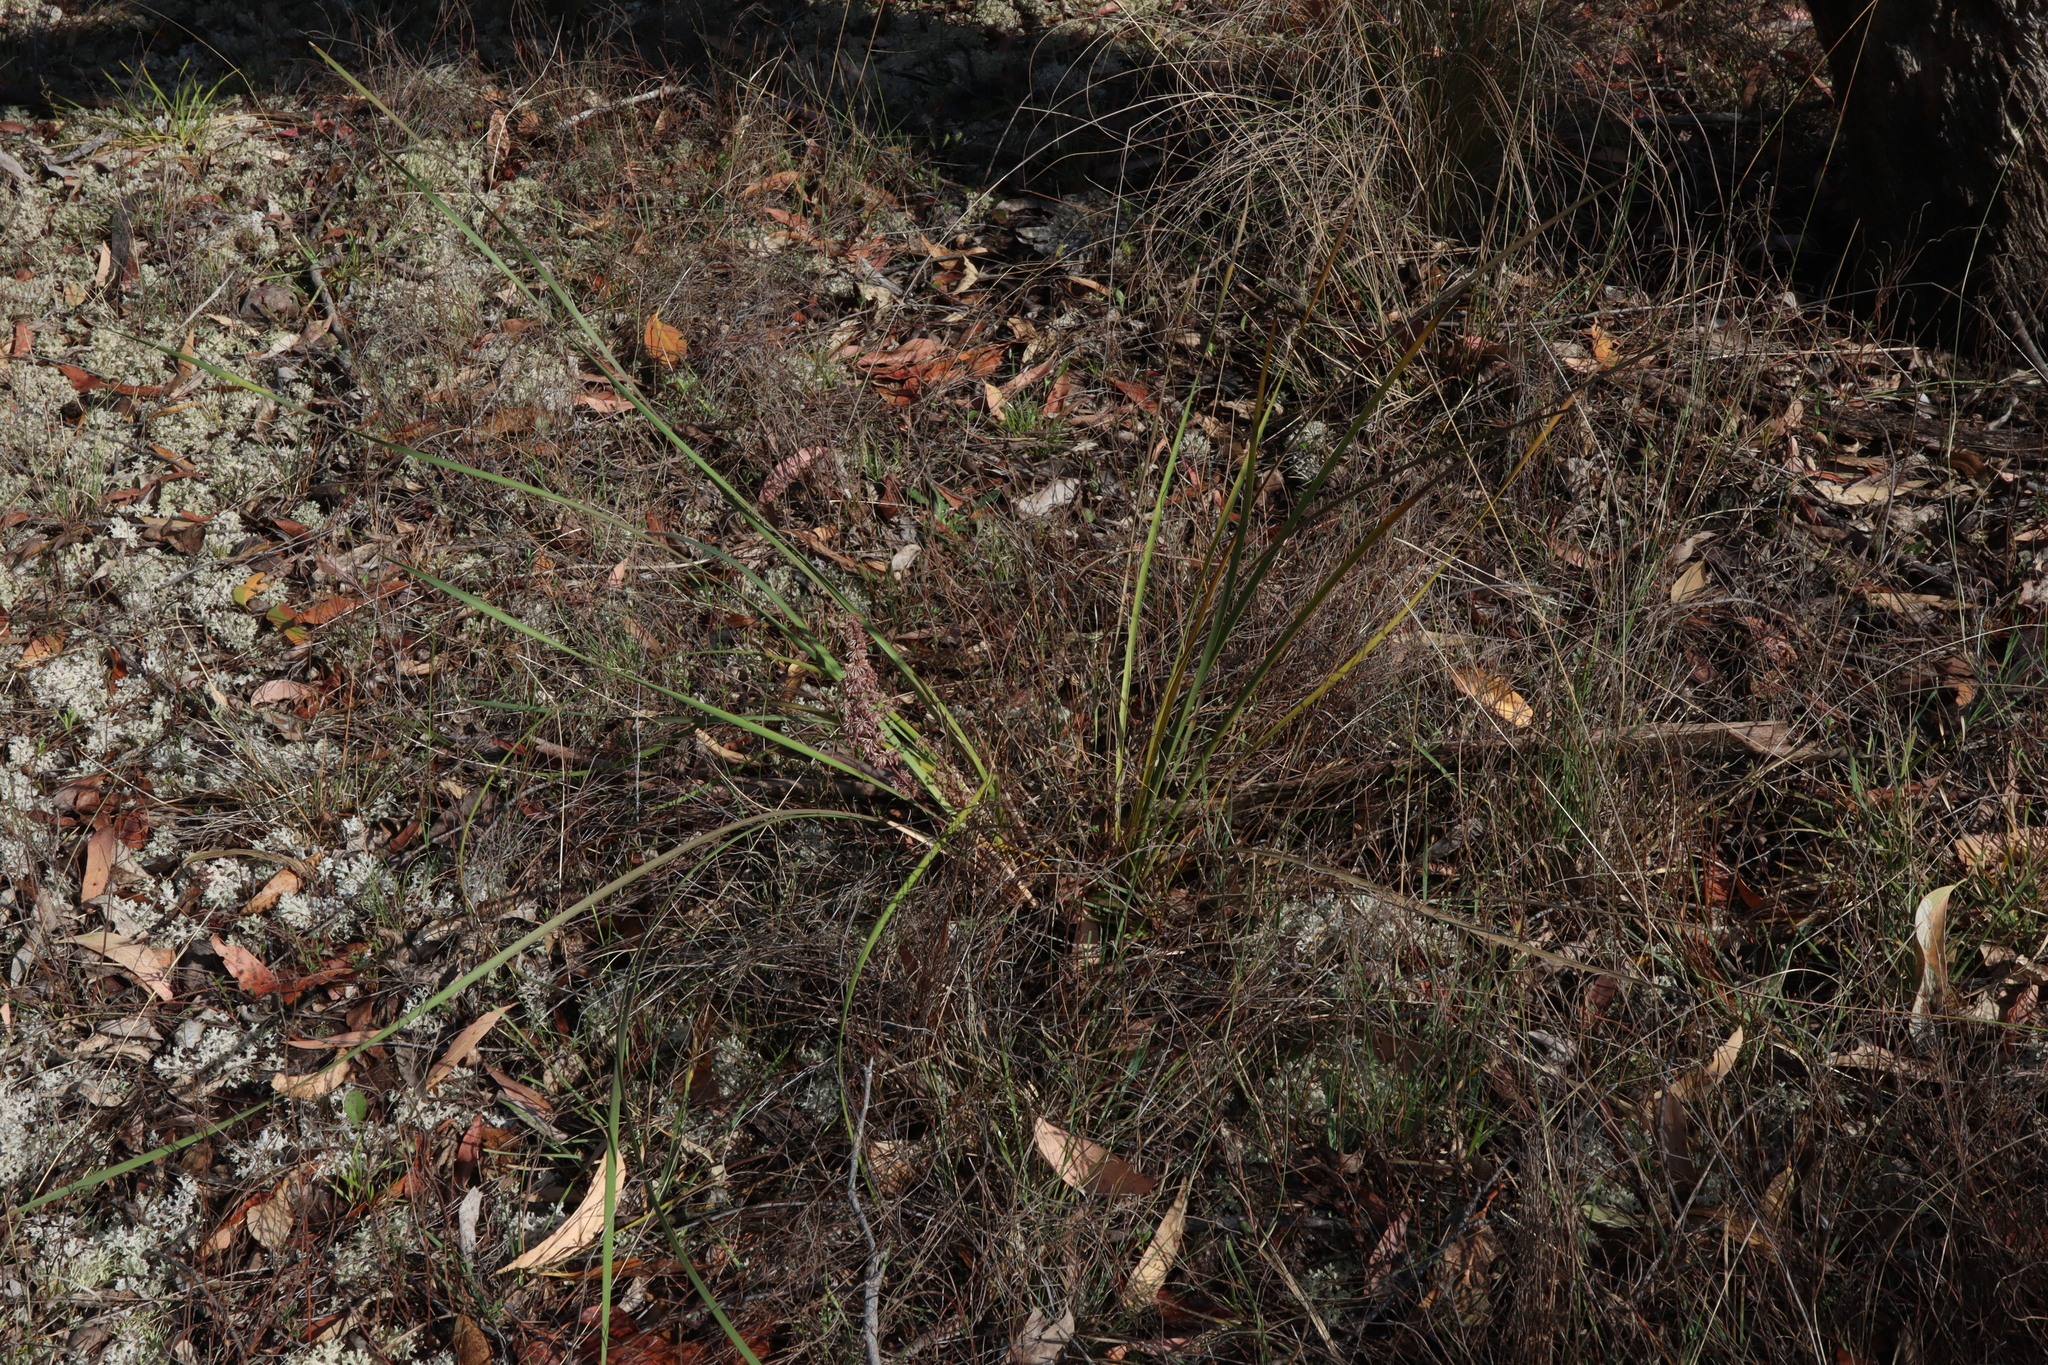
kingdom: Plantae
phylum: Tracheophyta
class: Liliopsida
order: Asparagales
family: Asparagaceae
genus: Lomandra
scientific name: Lomandra multiflora
